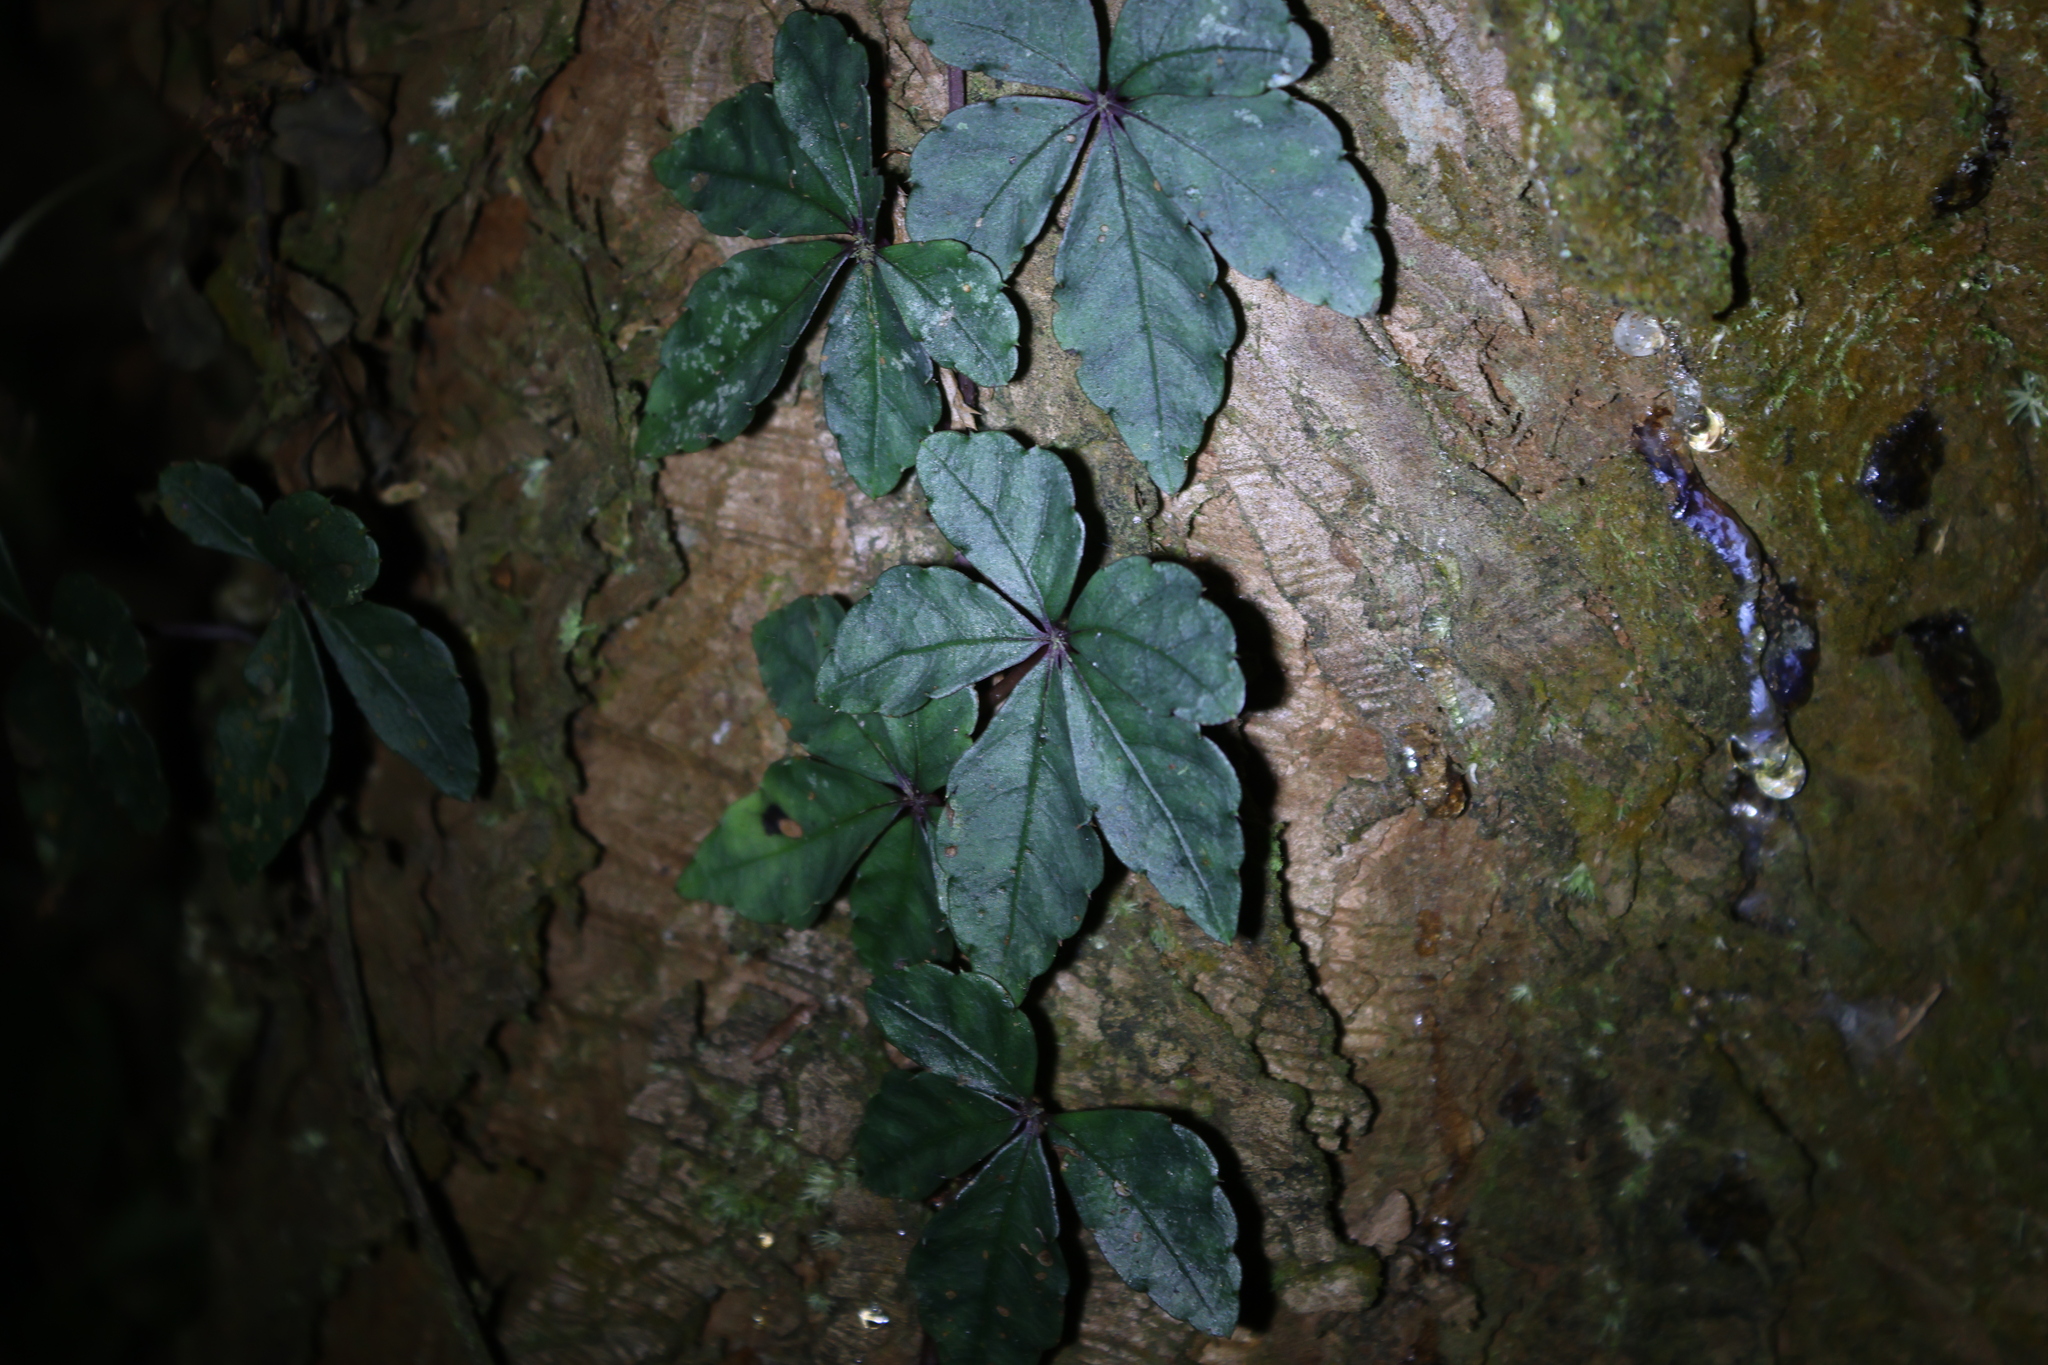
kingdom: Plantae
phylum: Tracheophyta
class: Magnoliopsida
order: Vitales
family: Vitaceae
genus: Tetrastigma
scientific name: Tetrastigma obtectum
